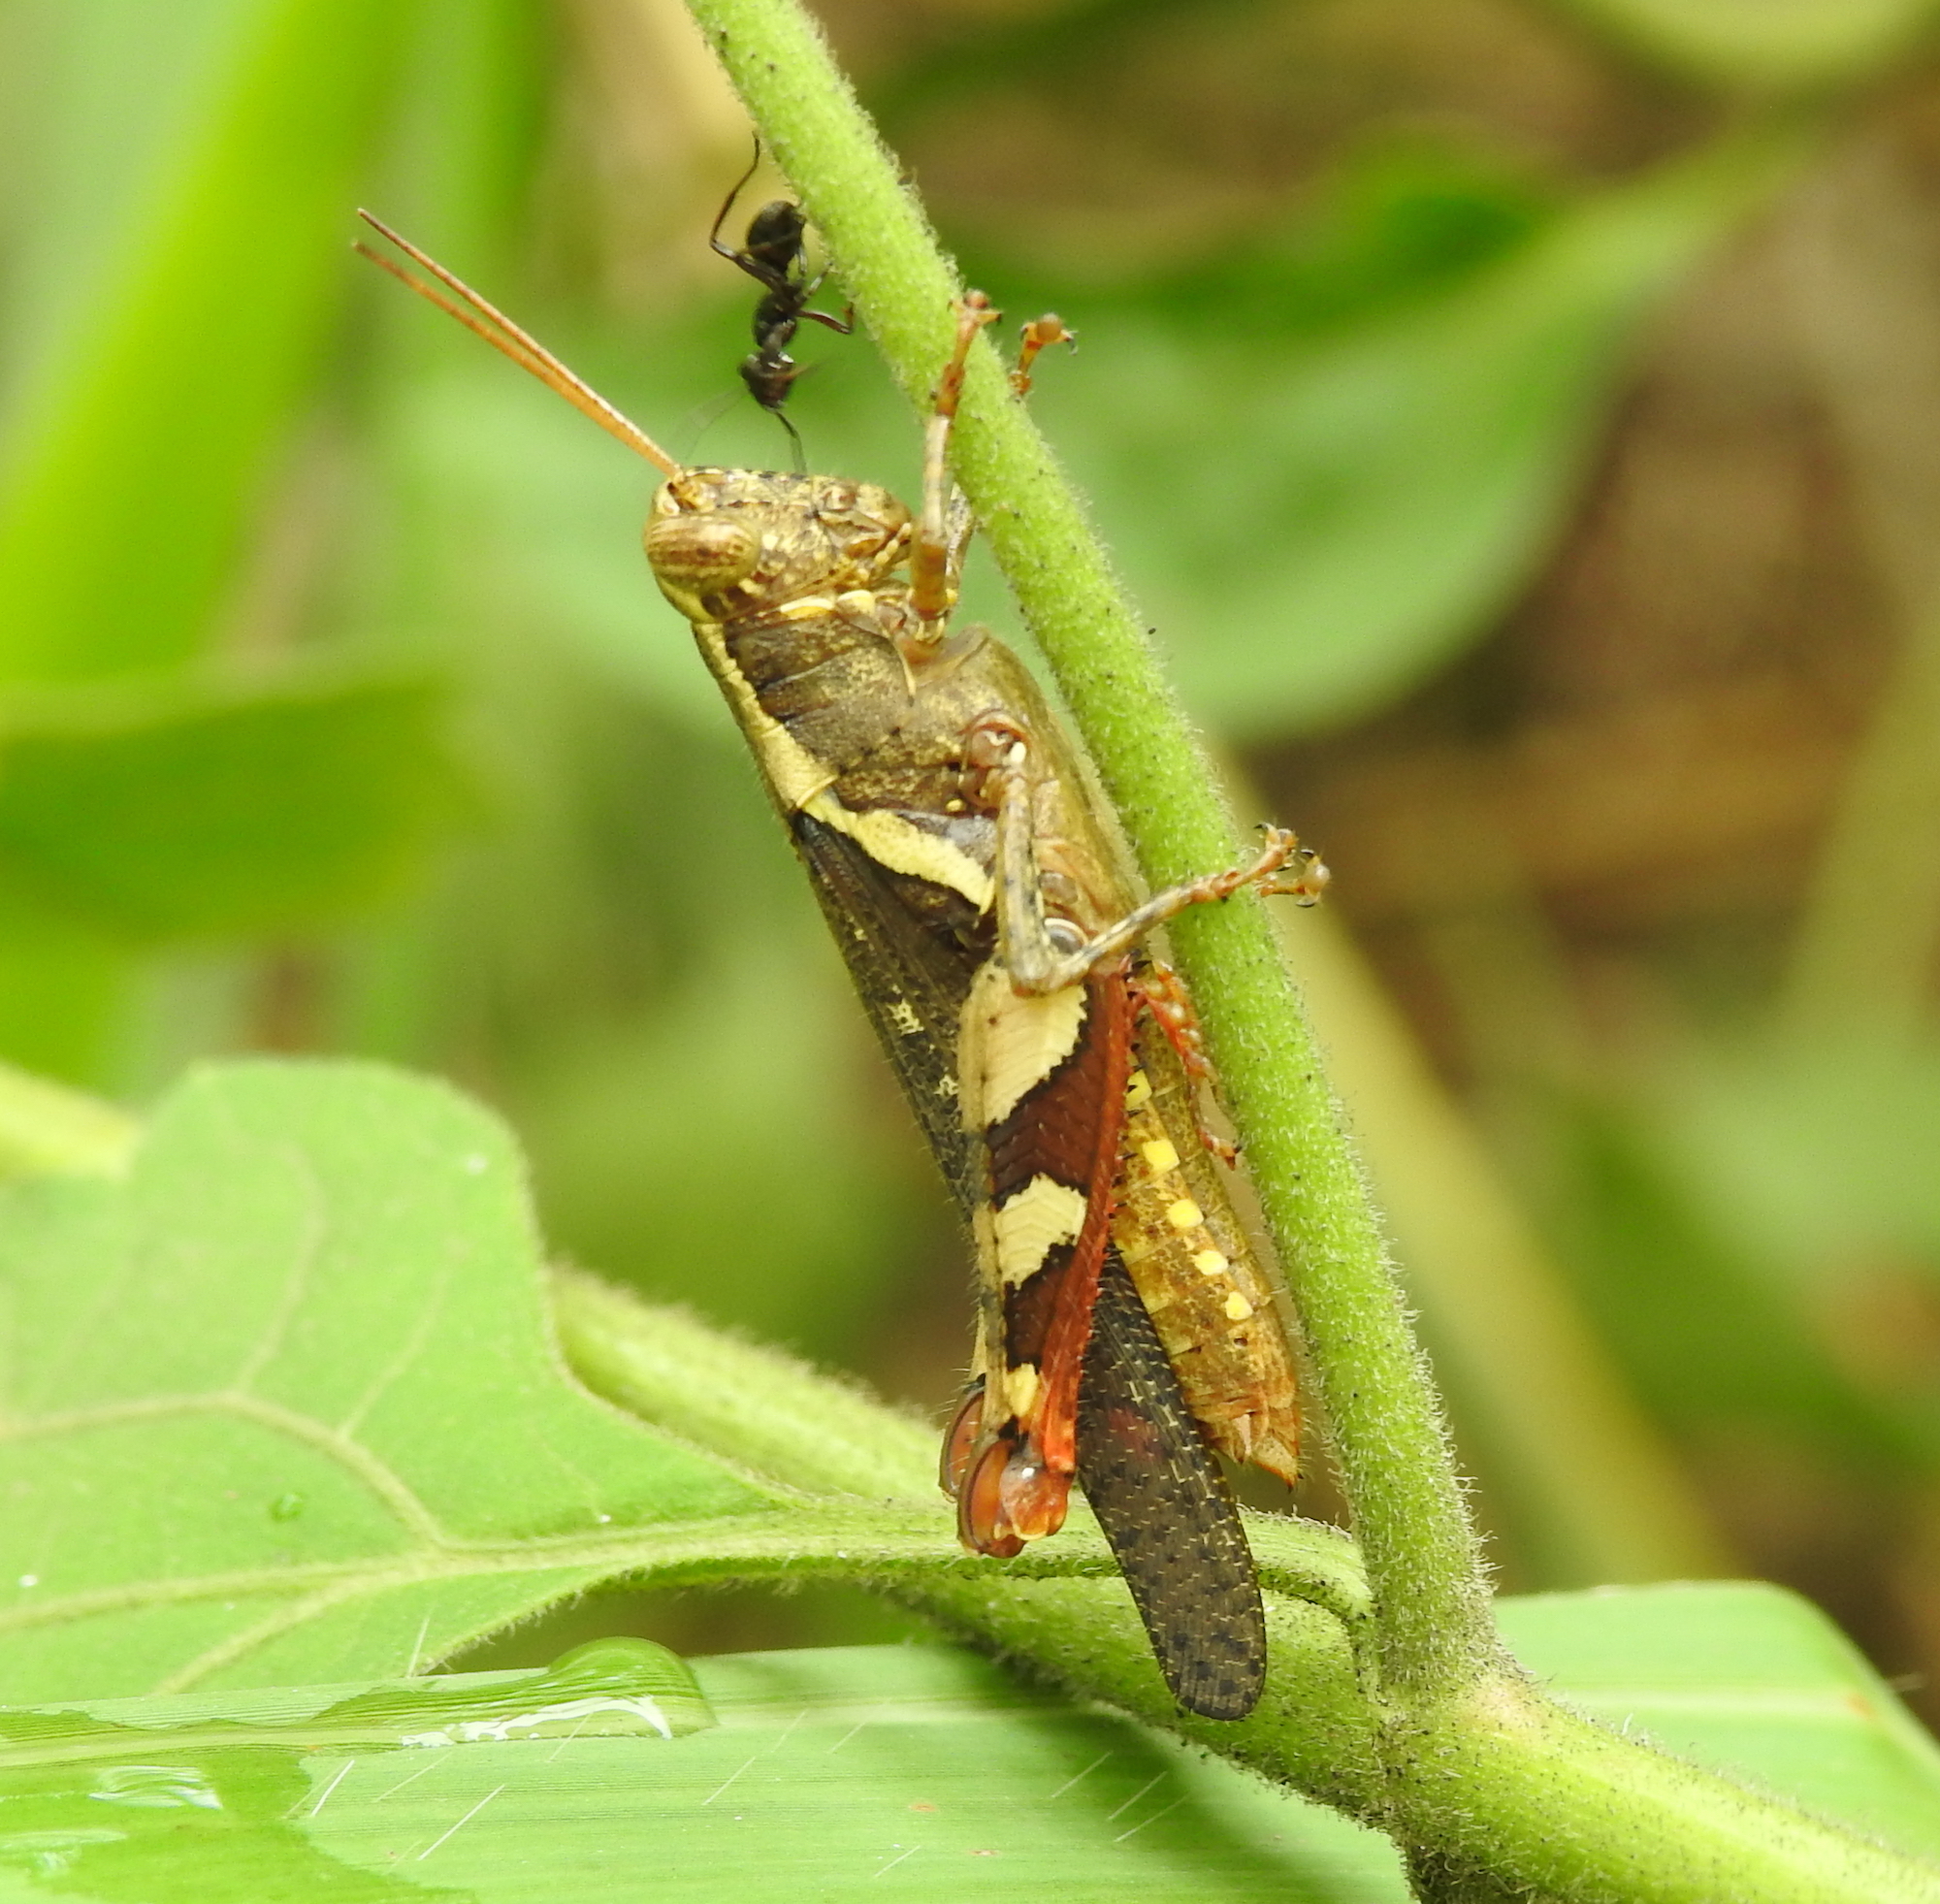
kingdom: Animalia
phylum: Arthropoda
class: Insecta
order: Orthoptera
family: Acrididae
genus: Xenocatantops
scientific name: Xenocatantops humile
